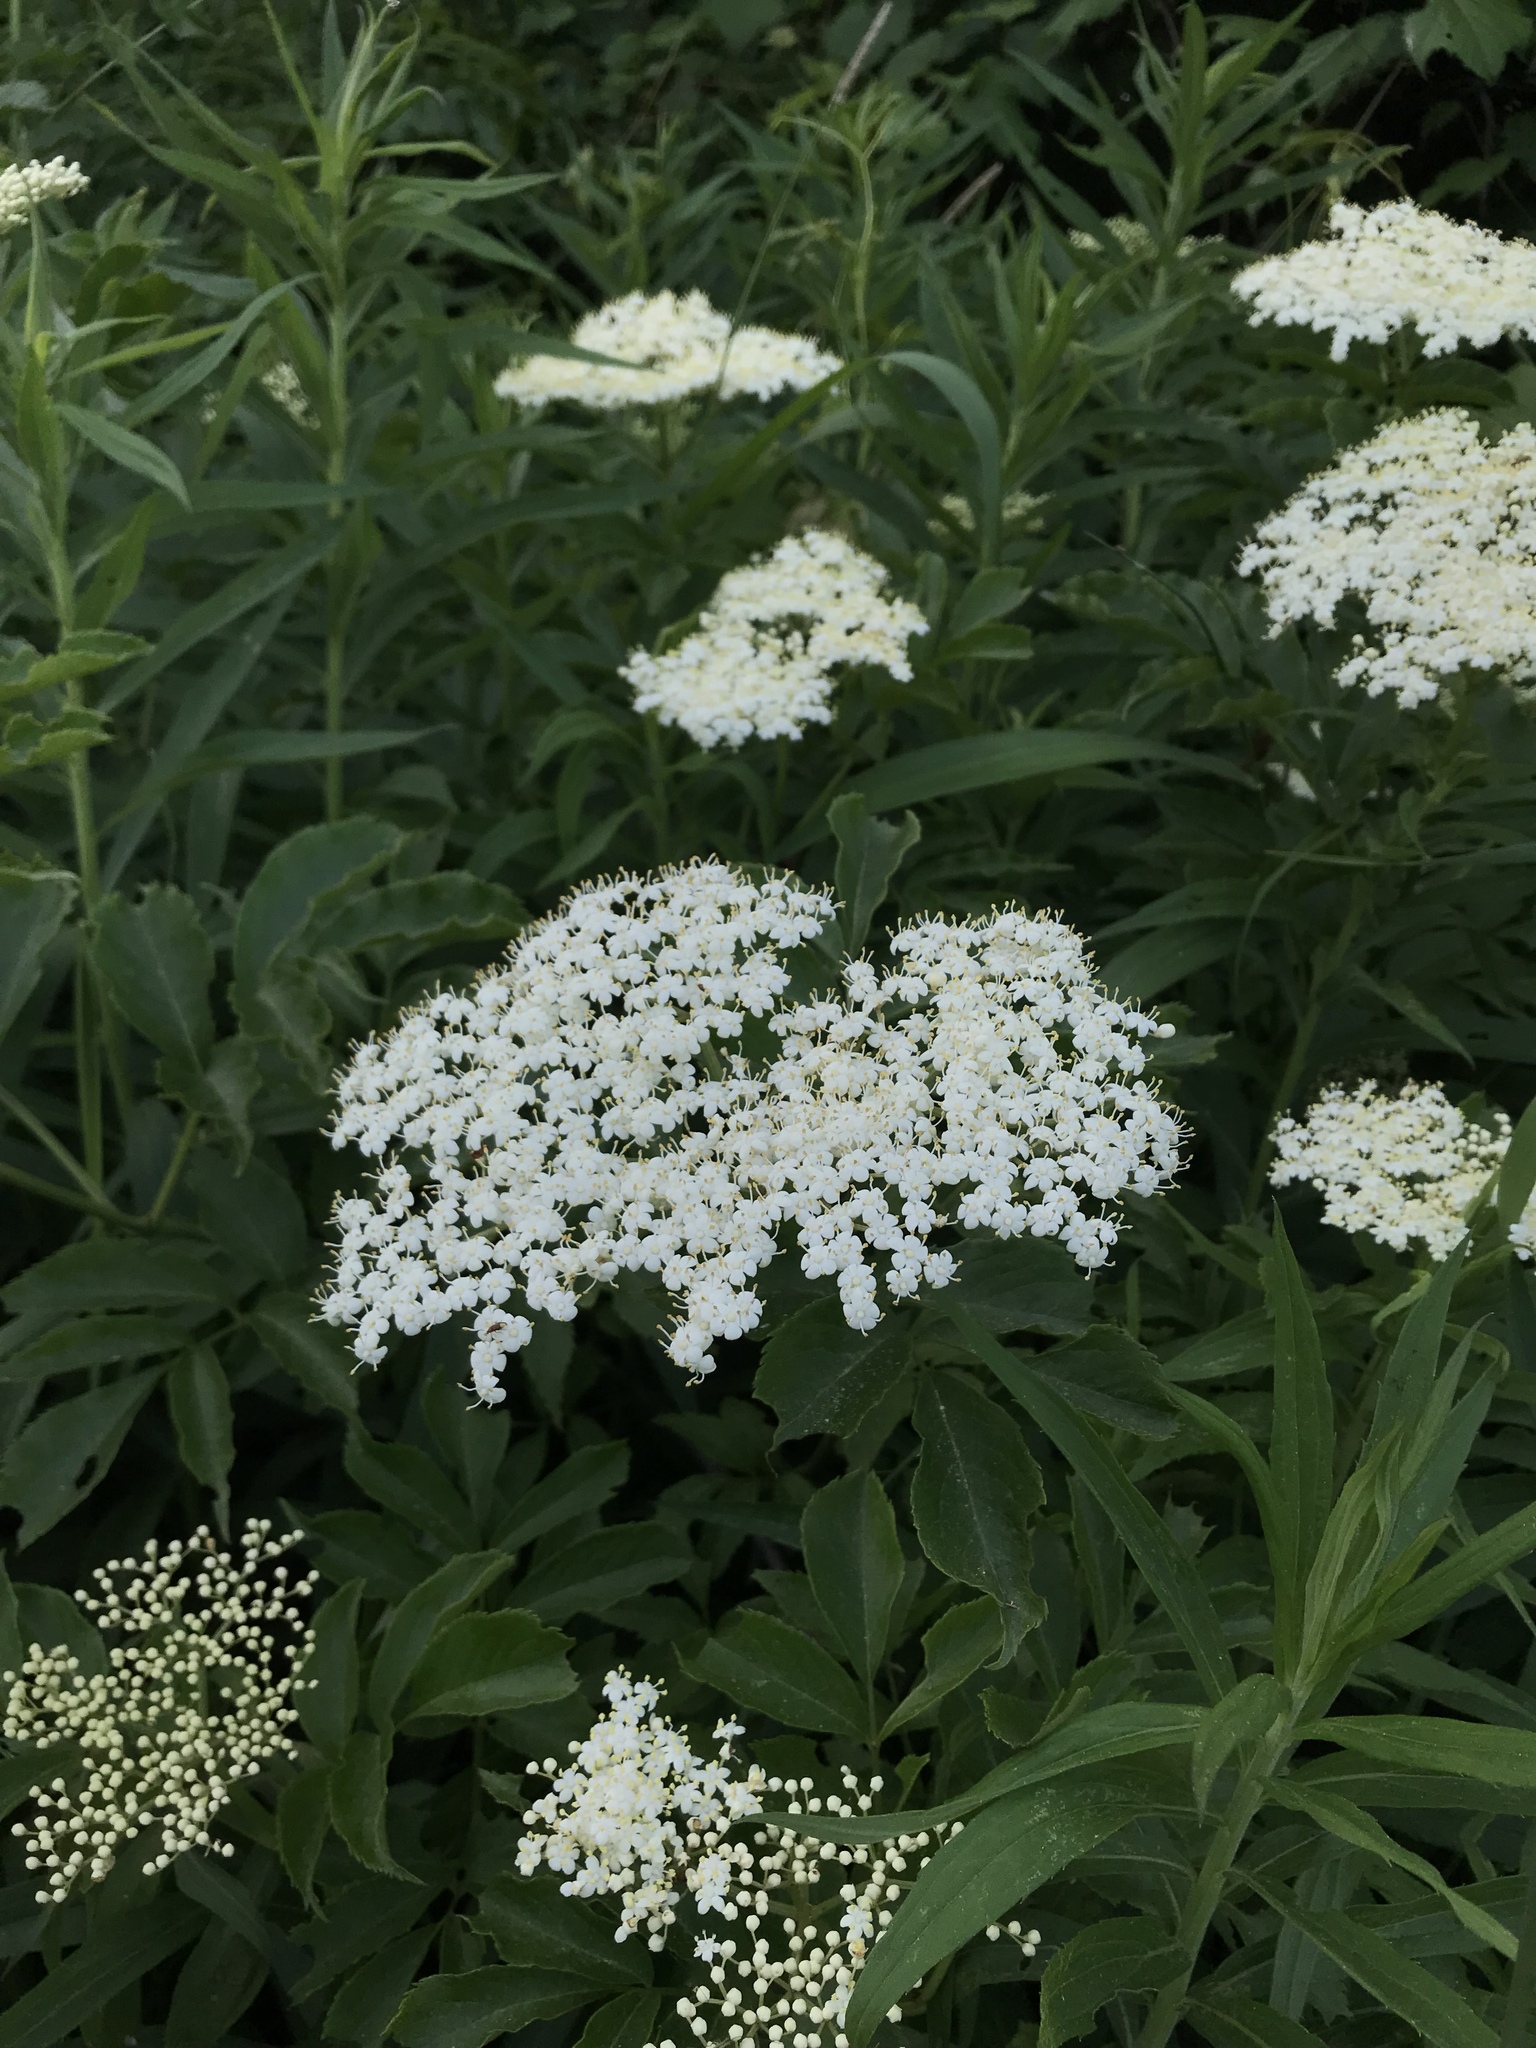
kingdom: Plantae
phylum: Tracheophyta
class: Magnoliopsida
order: Dipsacales
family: Viburnaceae
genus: Sambucus
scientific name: Sambucus canadensis
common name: American elder
